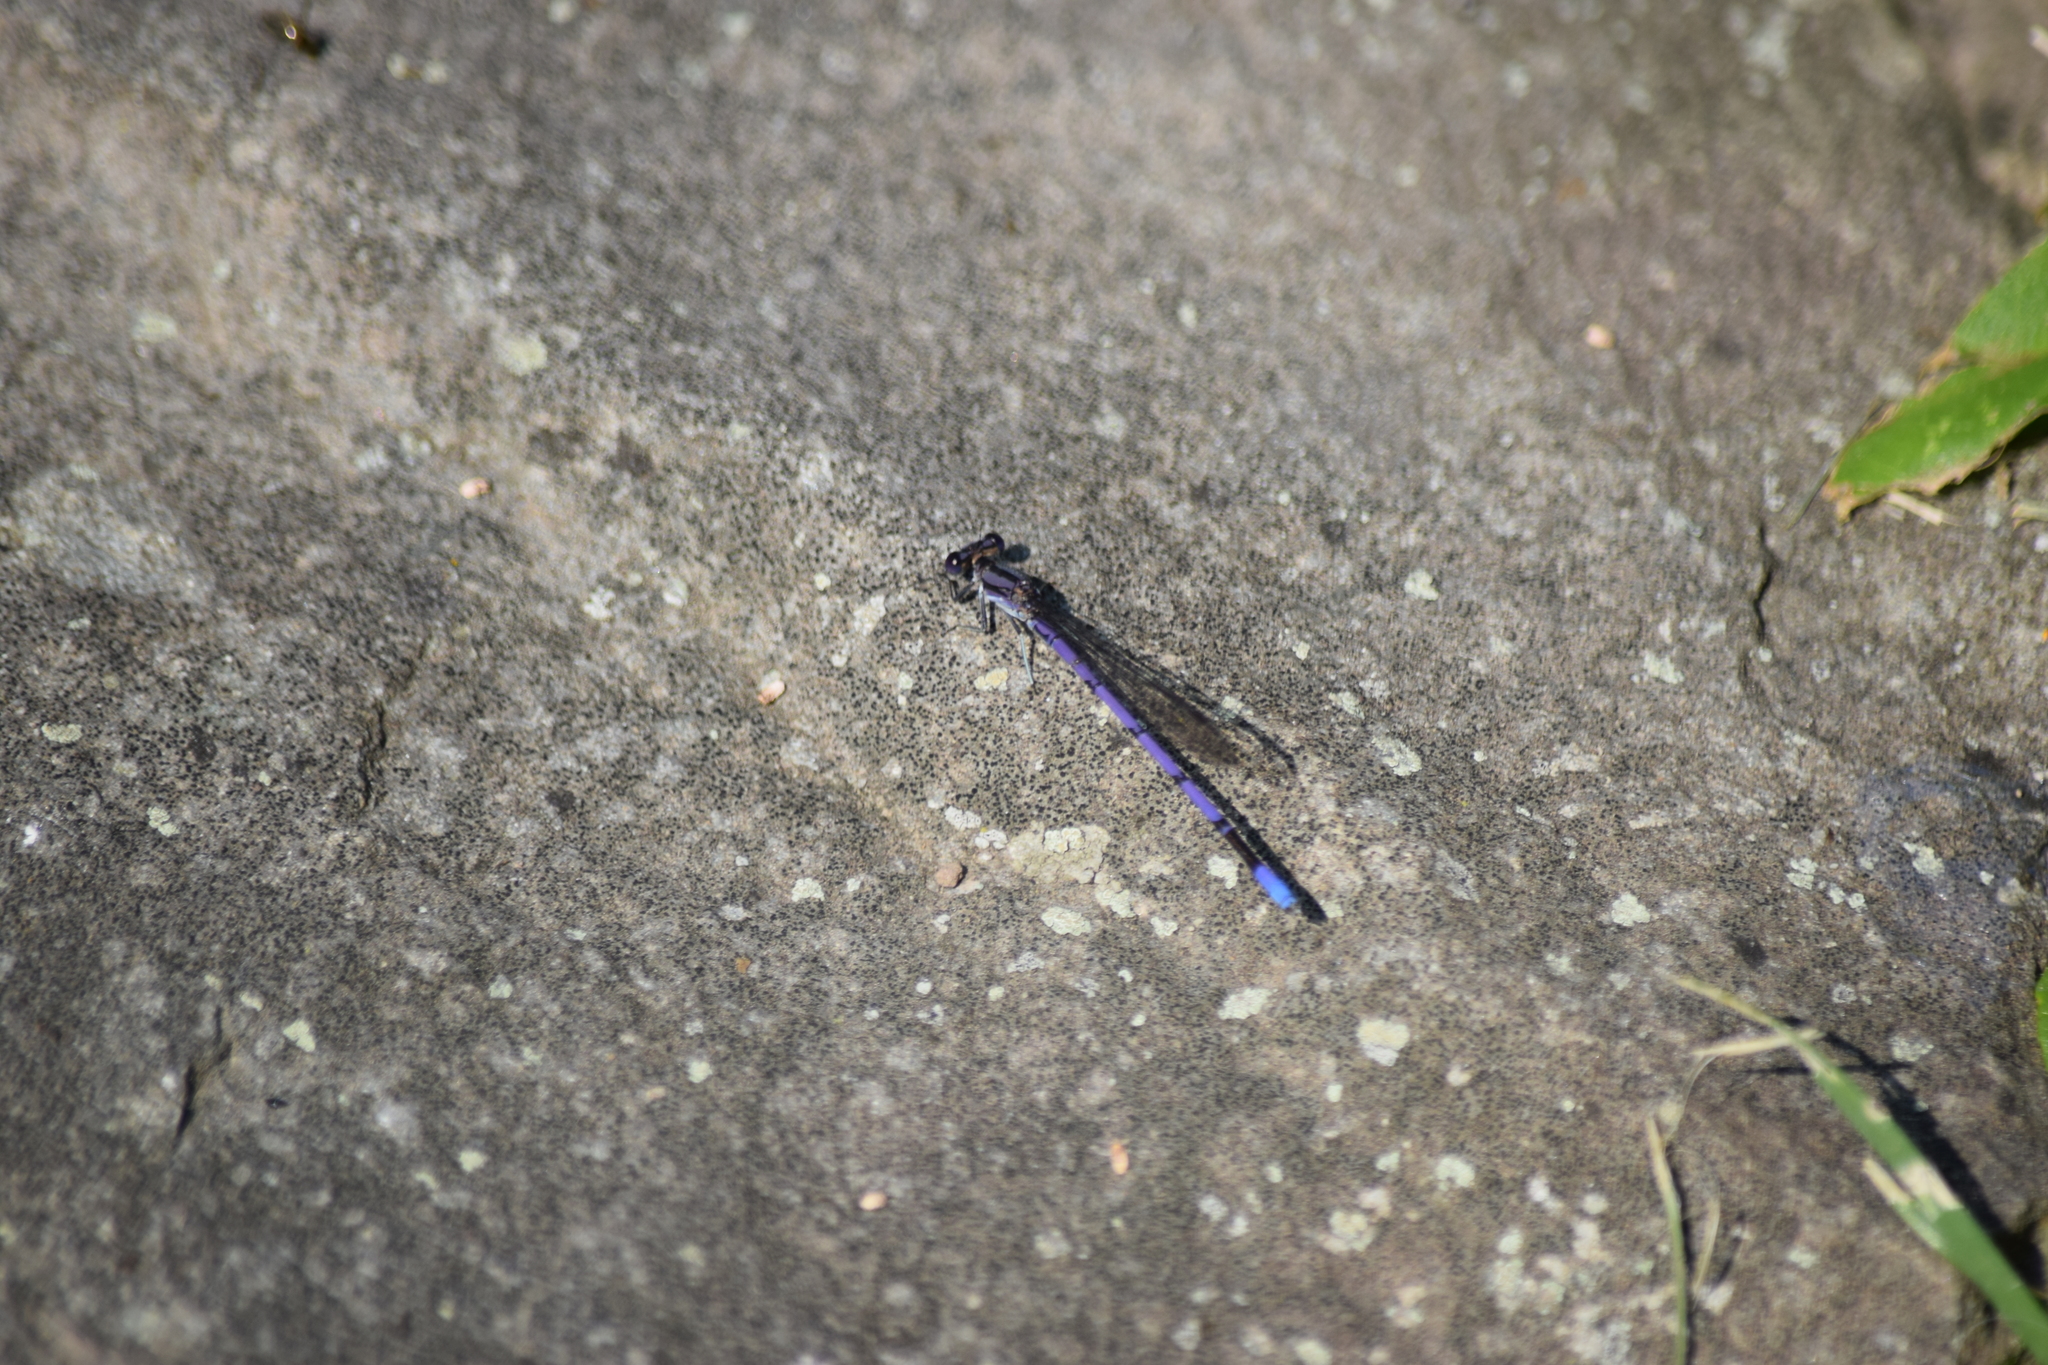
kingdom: Animalia
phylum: Arthropoda
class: Insecta
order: Odonata
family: Coenagrionidae
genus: Argia
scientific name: Argia fumipennis
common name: Variable dancer
